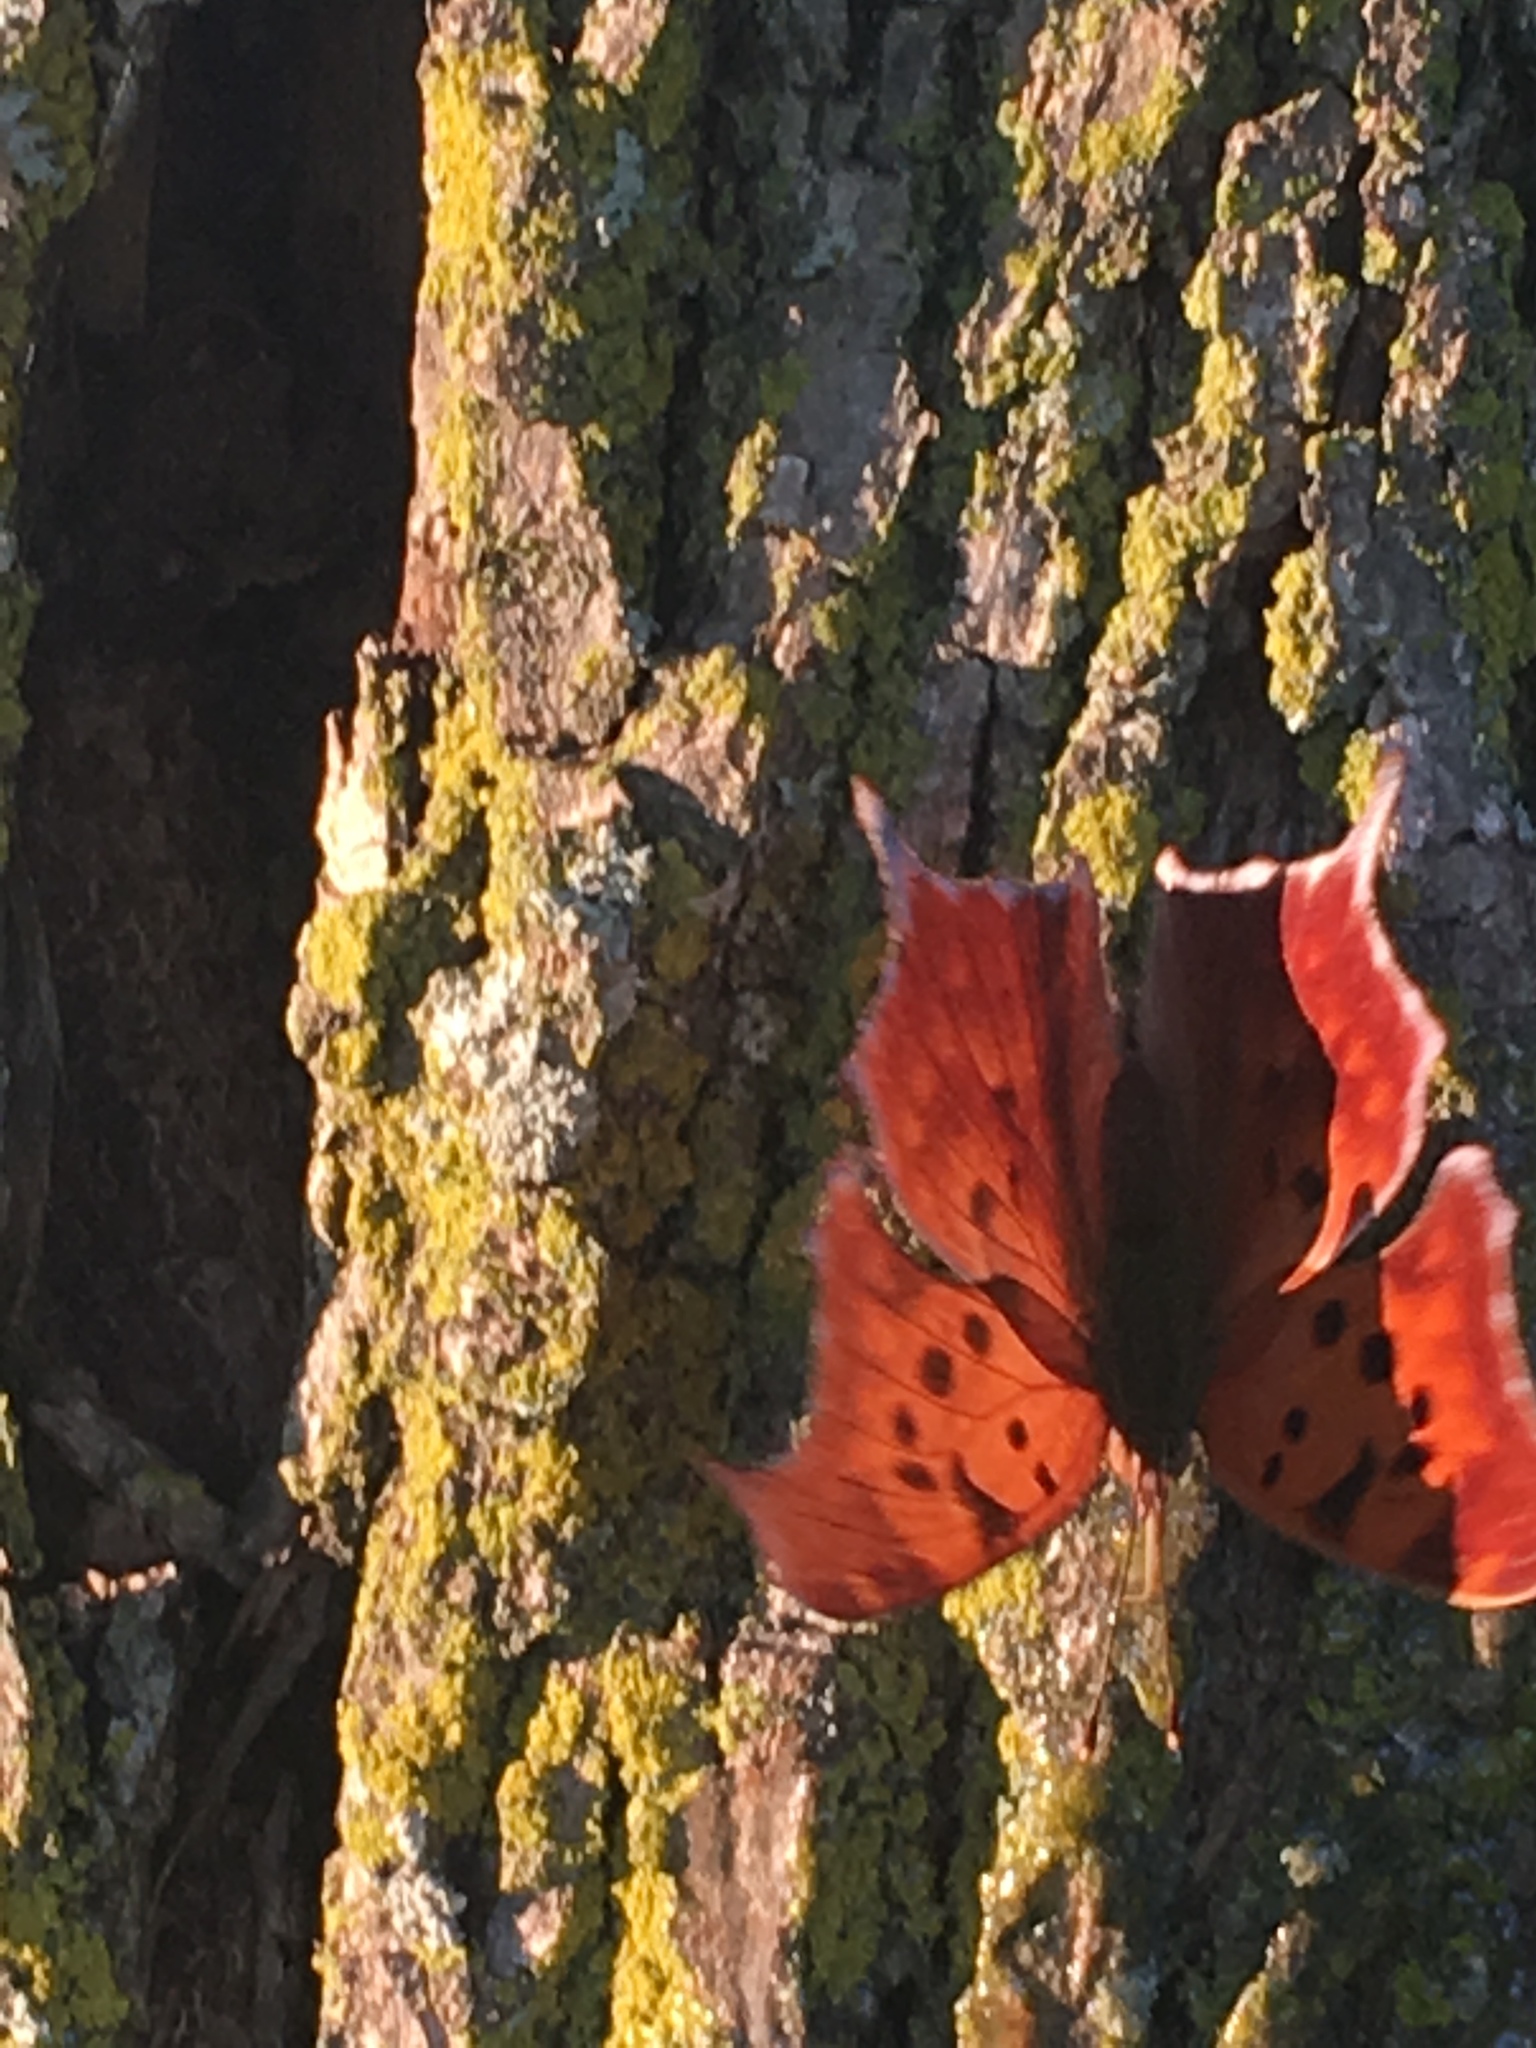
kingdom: Animalia
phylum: Arthropoda
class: Insecta
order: Lepidoptera
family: Nymphalidae
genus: Polygonia
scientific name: Polygonia interrogationis
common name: Question mark
